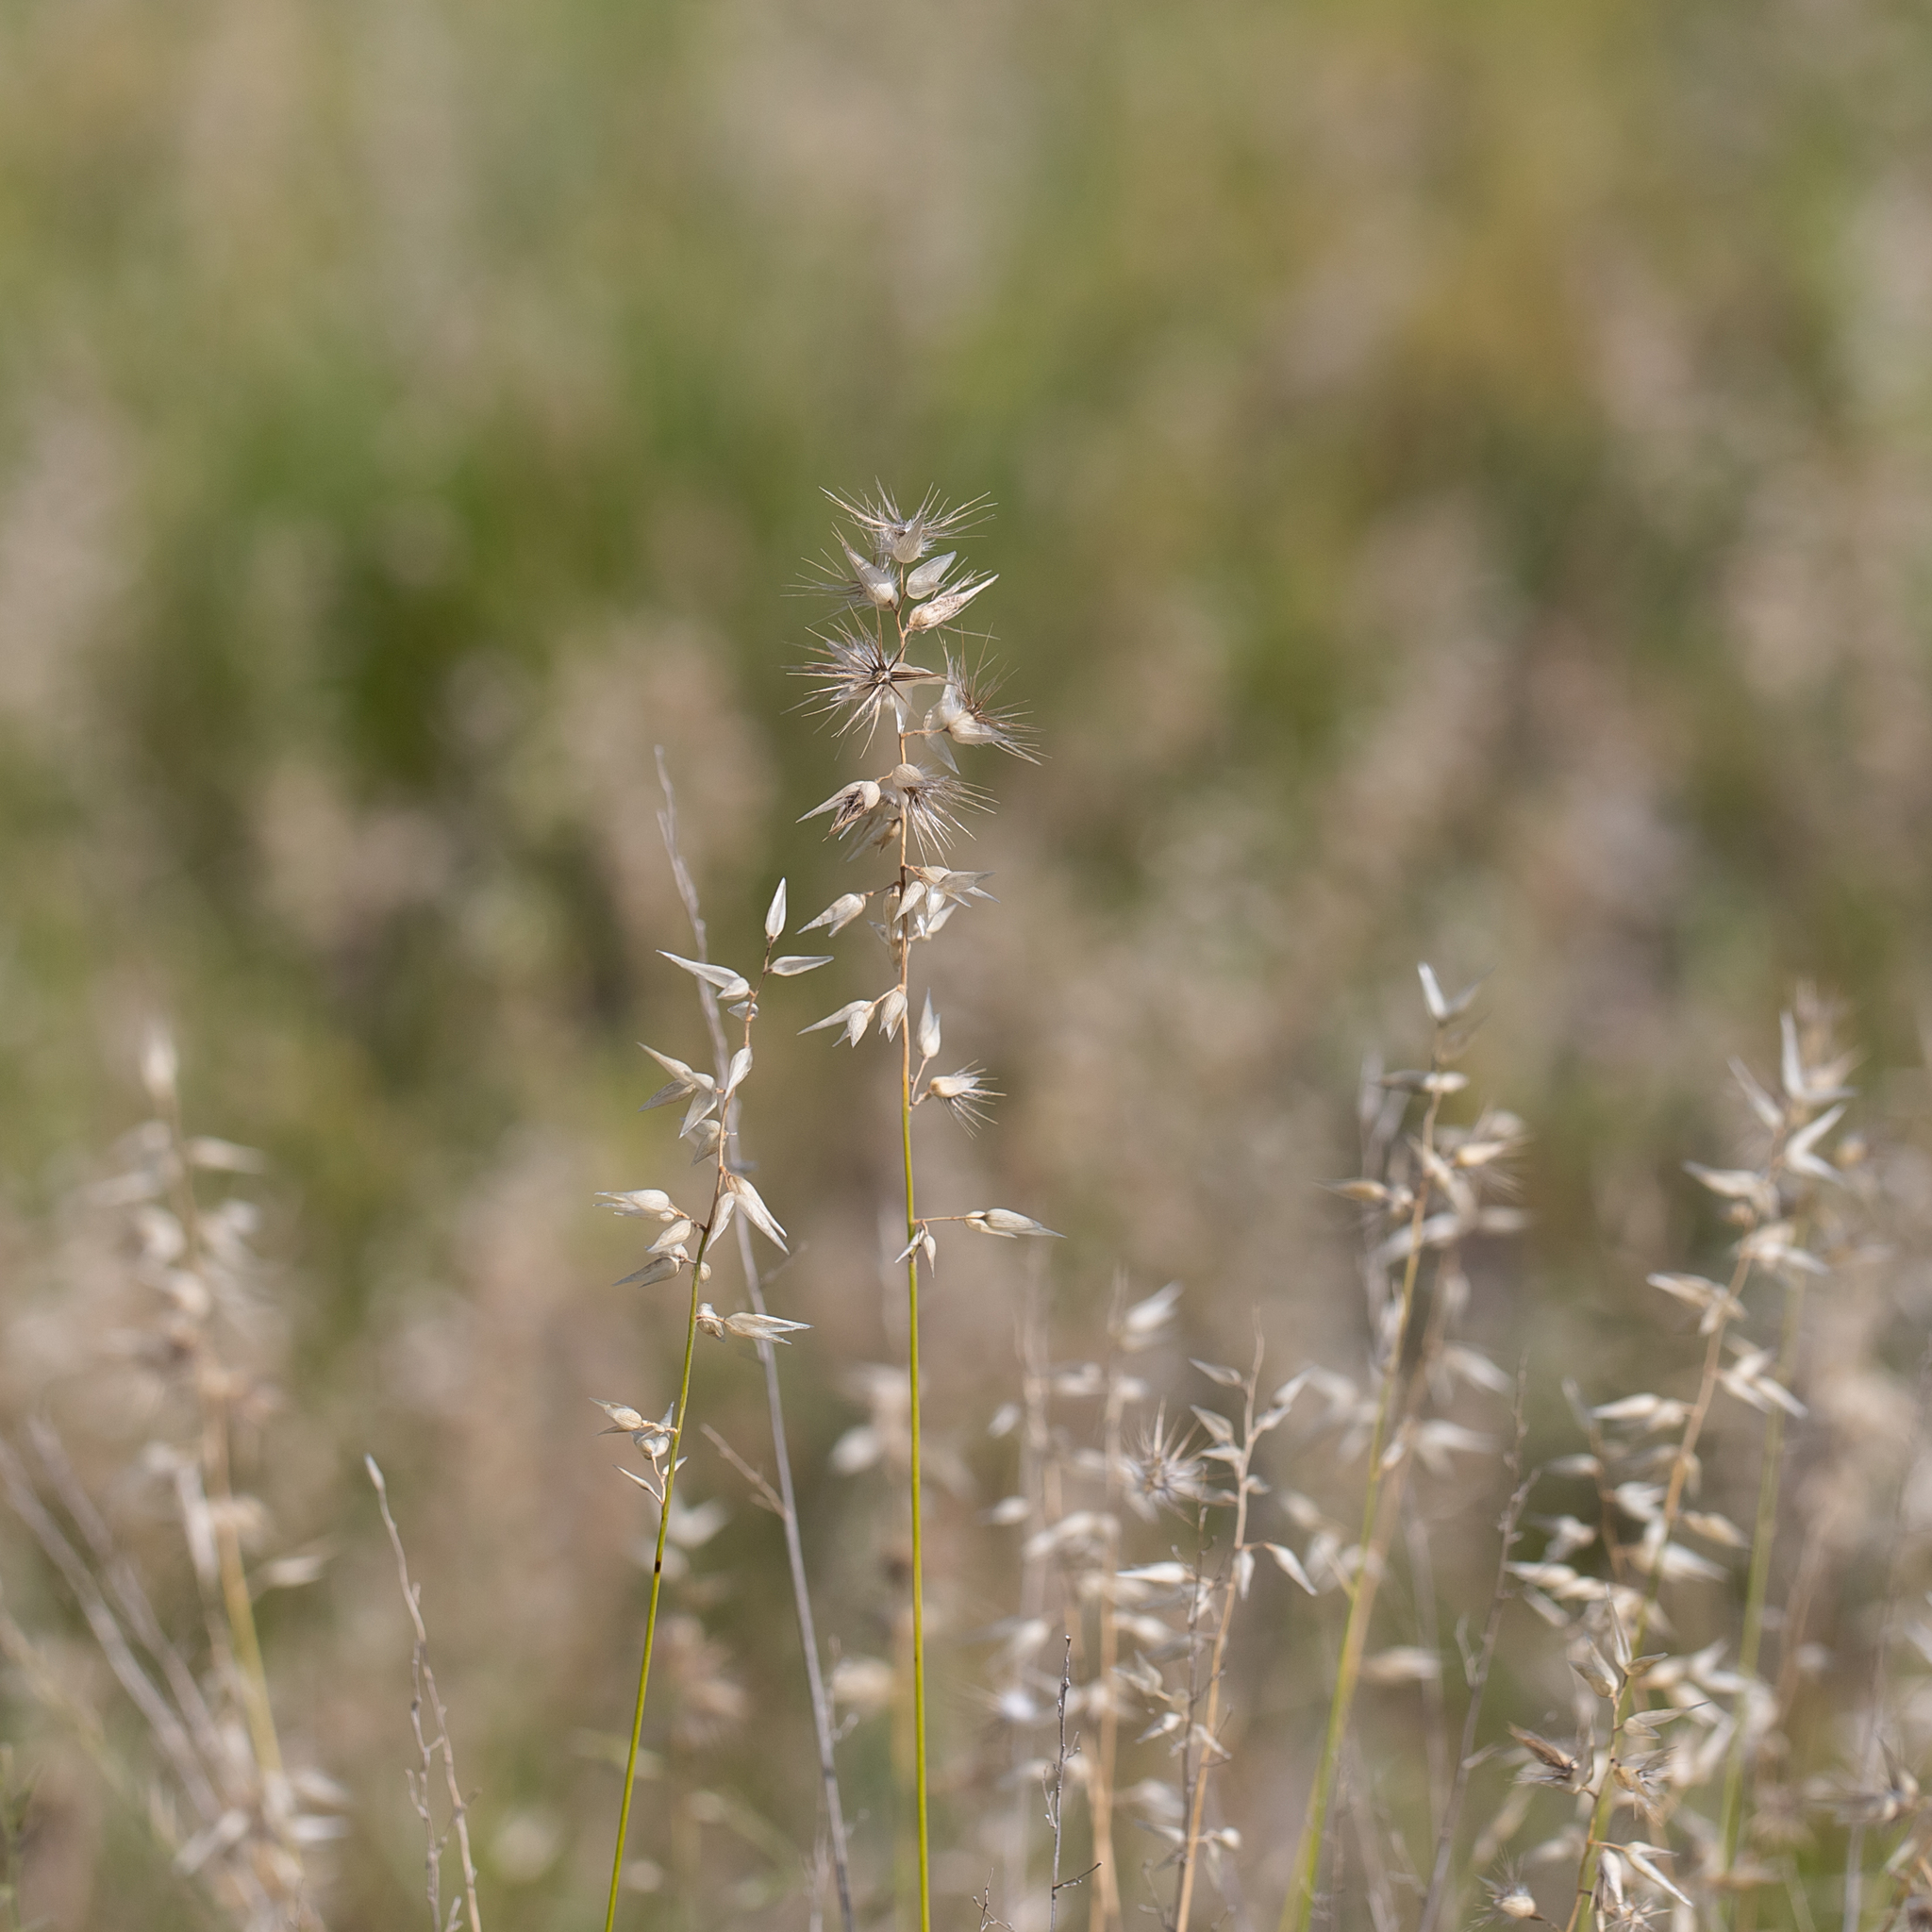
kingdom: Plantae
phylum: Tracheophyta
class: Liliopsida
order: Poales
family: Poaceae
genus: Enneapogon
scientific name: Enneapogon avenaceus
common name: Hairy oat grass
